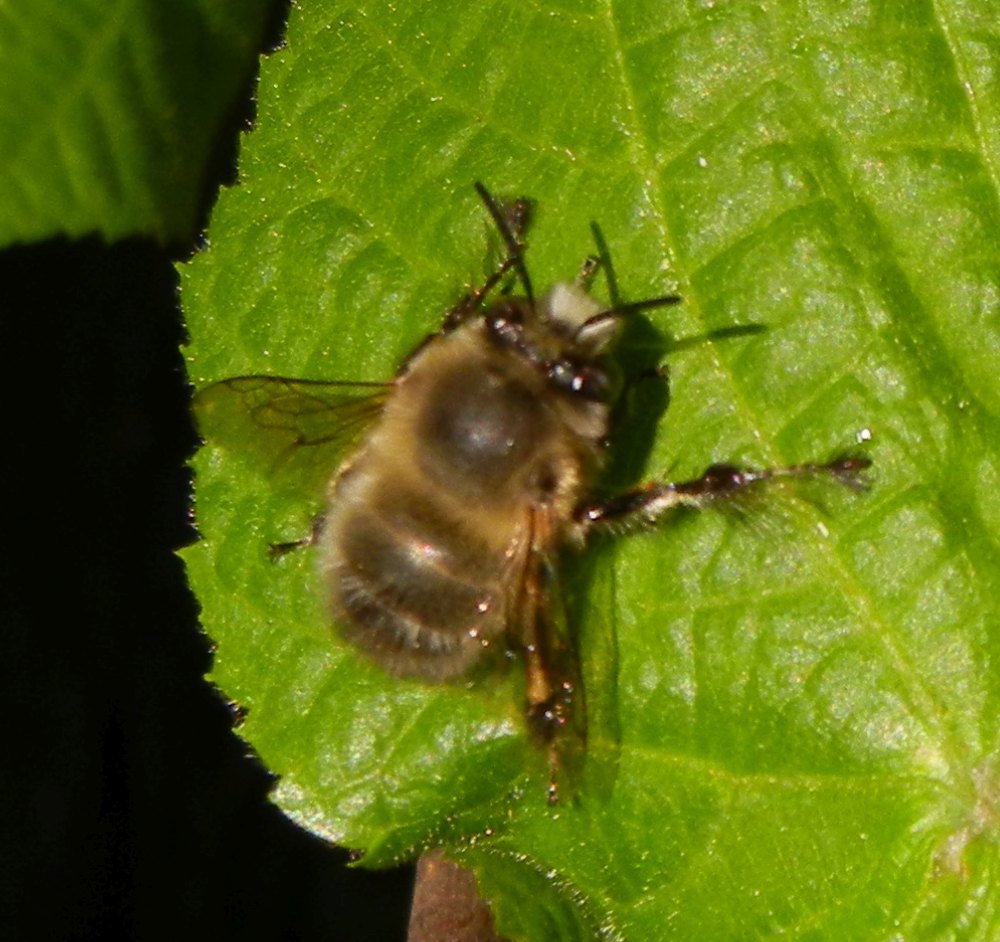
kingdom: Animalia
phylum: Arthropoda
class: Insecta
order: Hymenoptera
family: Apidae
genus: Anthophora
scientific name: Anthophora plumipes
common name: Hairy-footed flower bee
